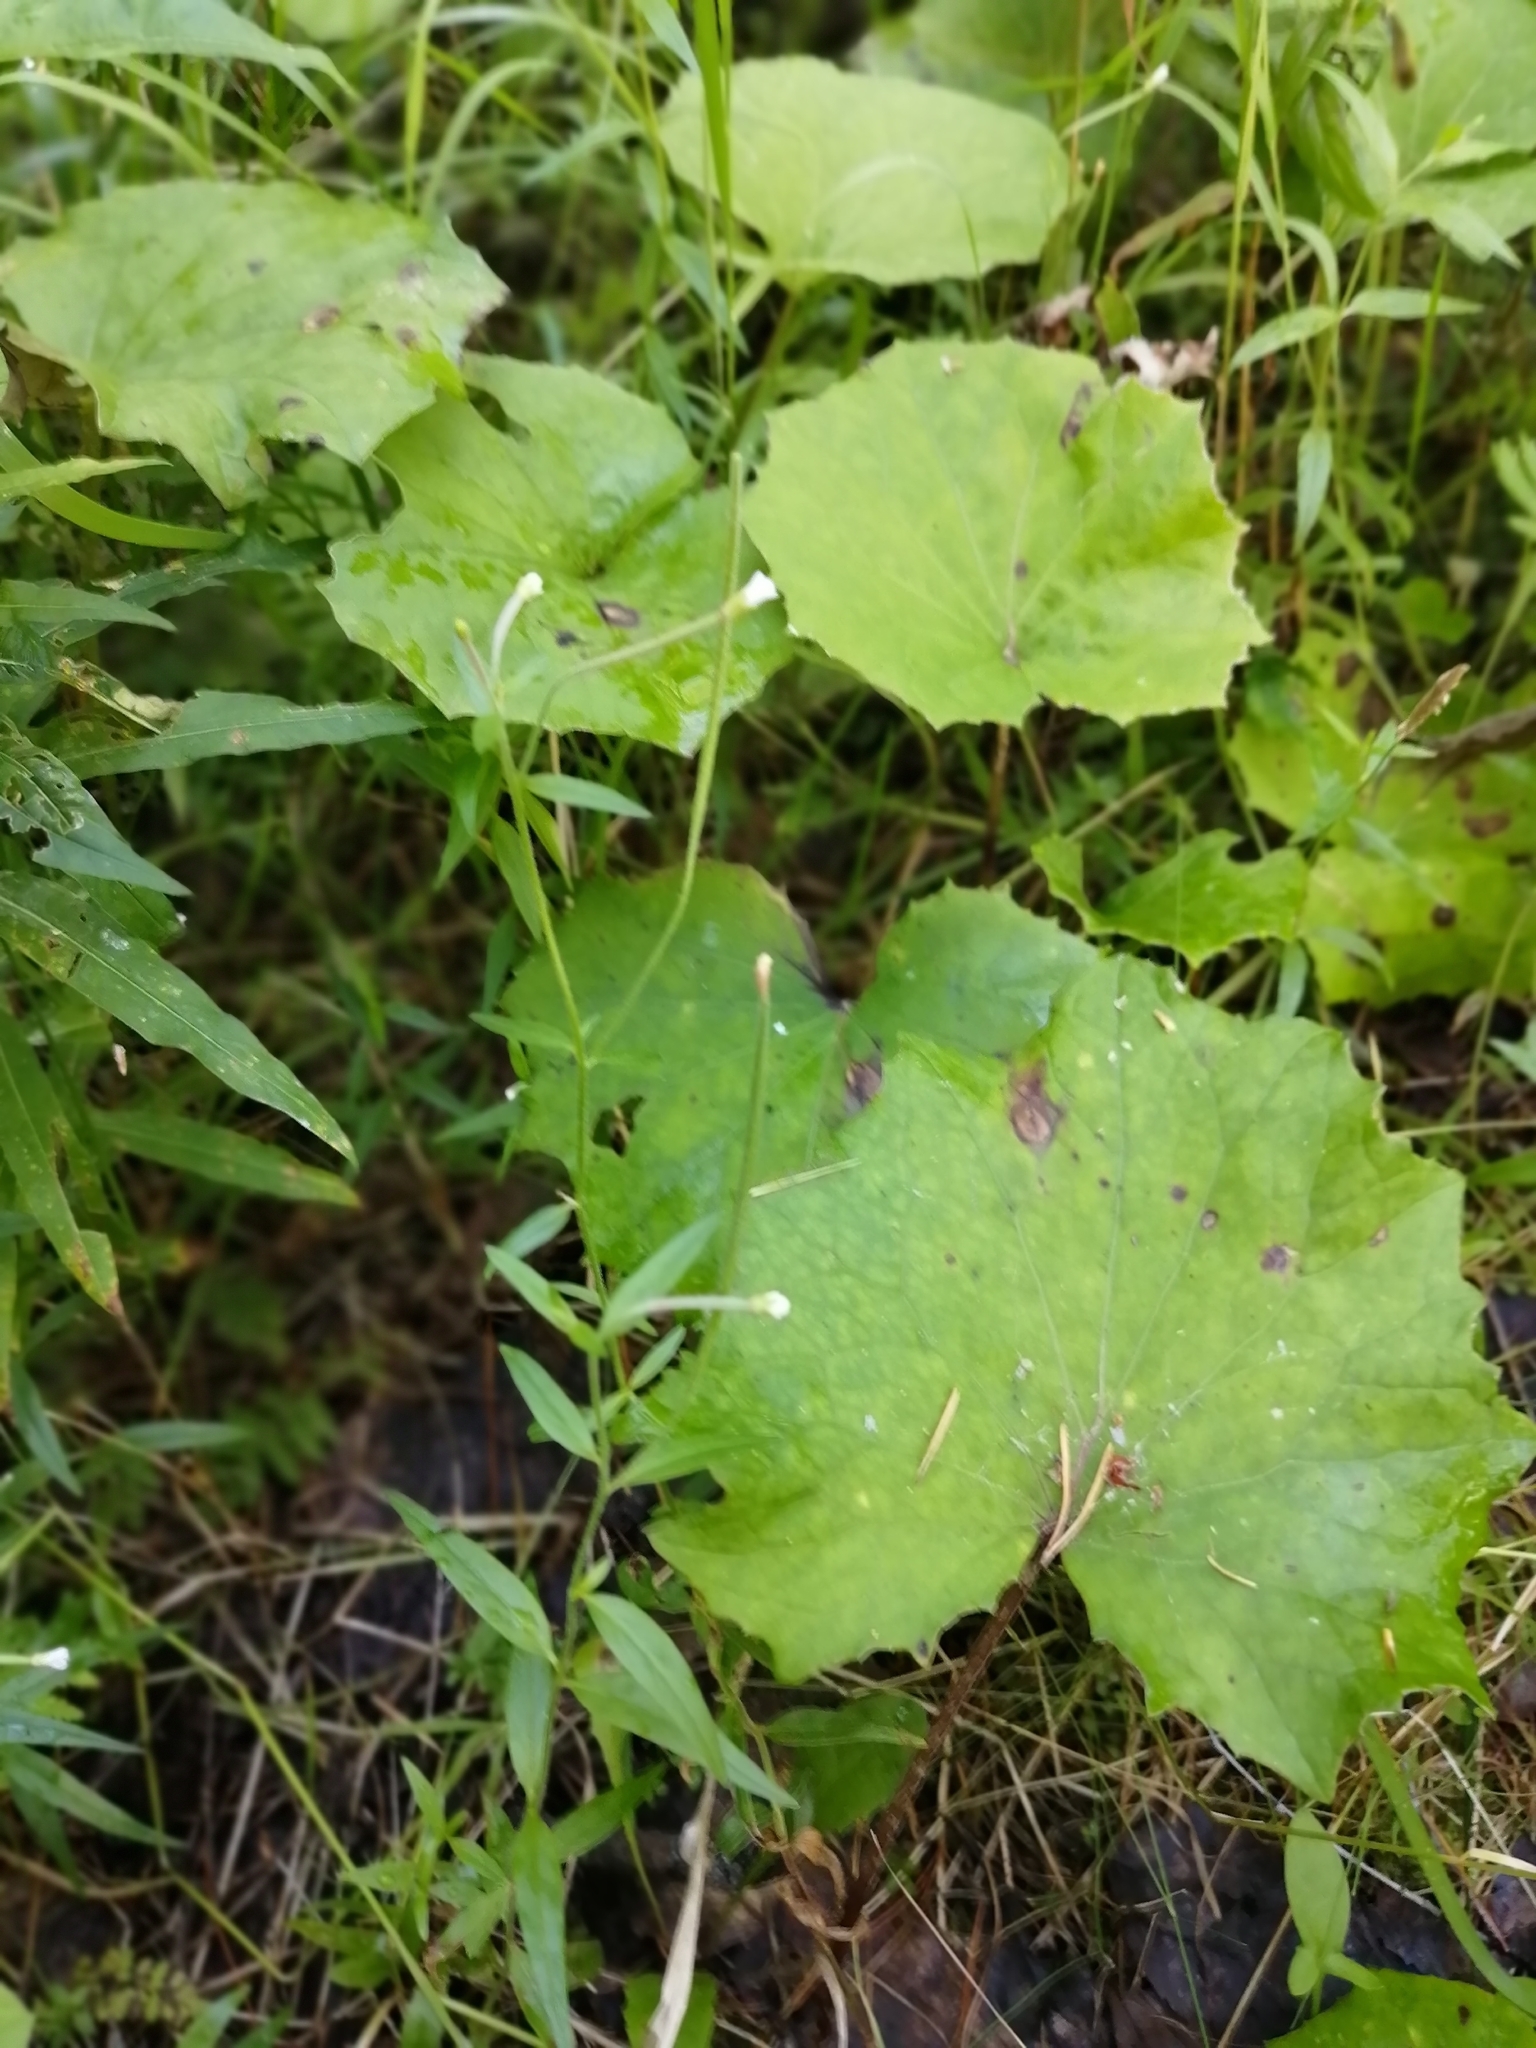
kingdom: Plantae
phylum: Tracheophyta
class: Magnoliopsida
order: Myrtales
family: Onagraceae
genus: Epilobium
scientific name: Epilobium palustre
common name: Marsh willowherb
